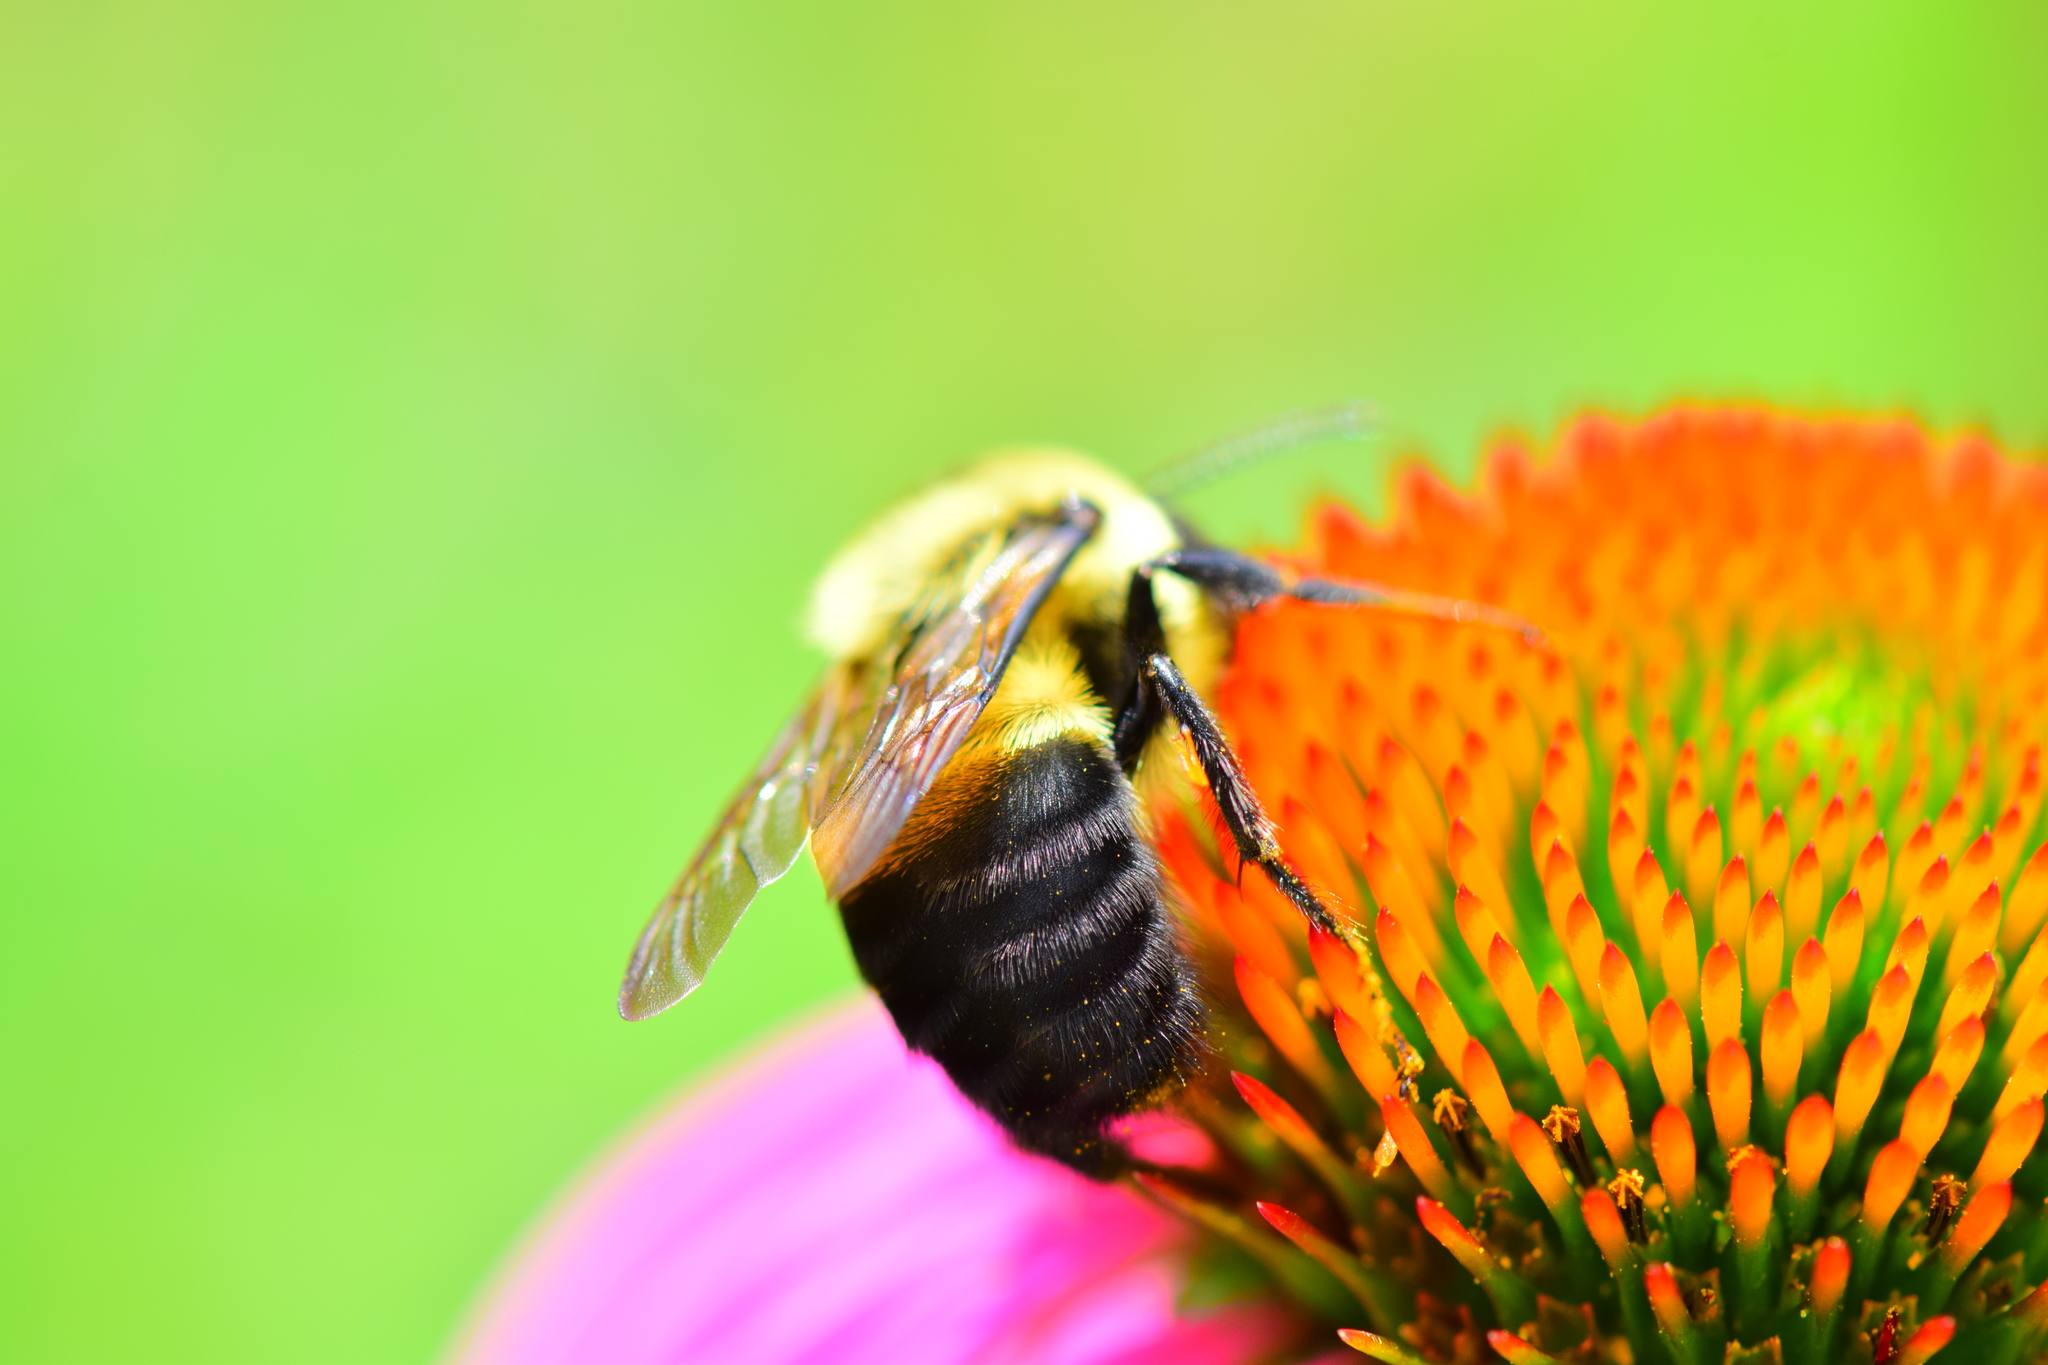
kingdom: Animalia
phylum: Arthropoda
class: Insecta
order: Hymenoptera
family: Apidae
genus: Bombus
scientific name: Bombus griseocollis
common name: Brown-belted bumble bee
